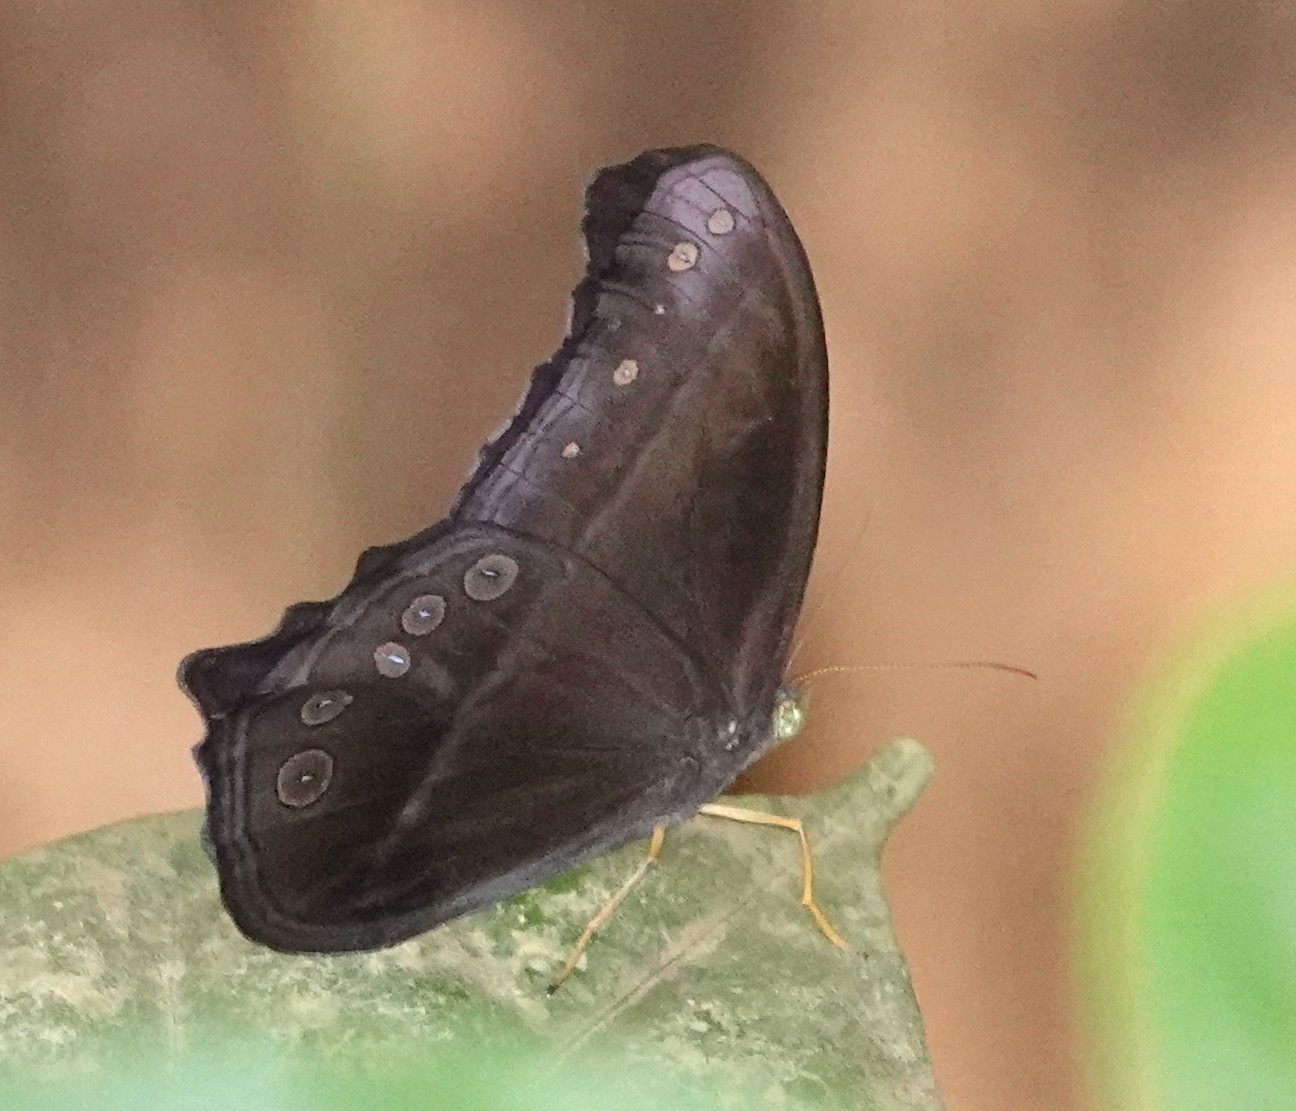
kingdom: Animalia
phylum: Arthropoda
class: Insecta
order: Lepidoptera
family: Nymphalidae
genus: Coelites
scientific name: Coelites epiminthia
